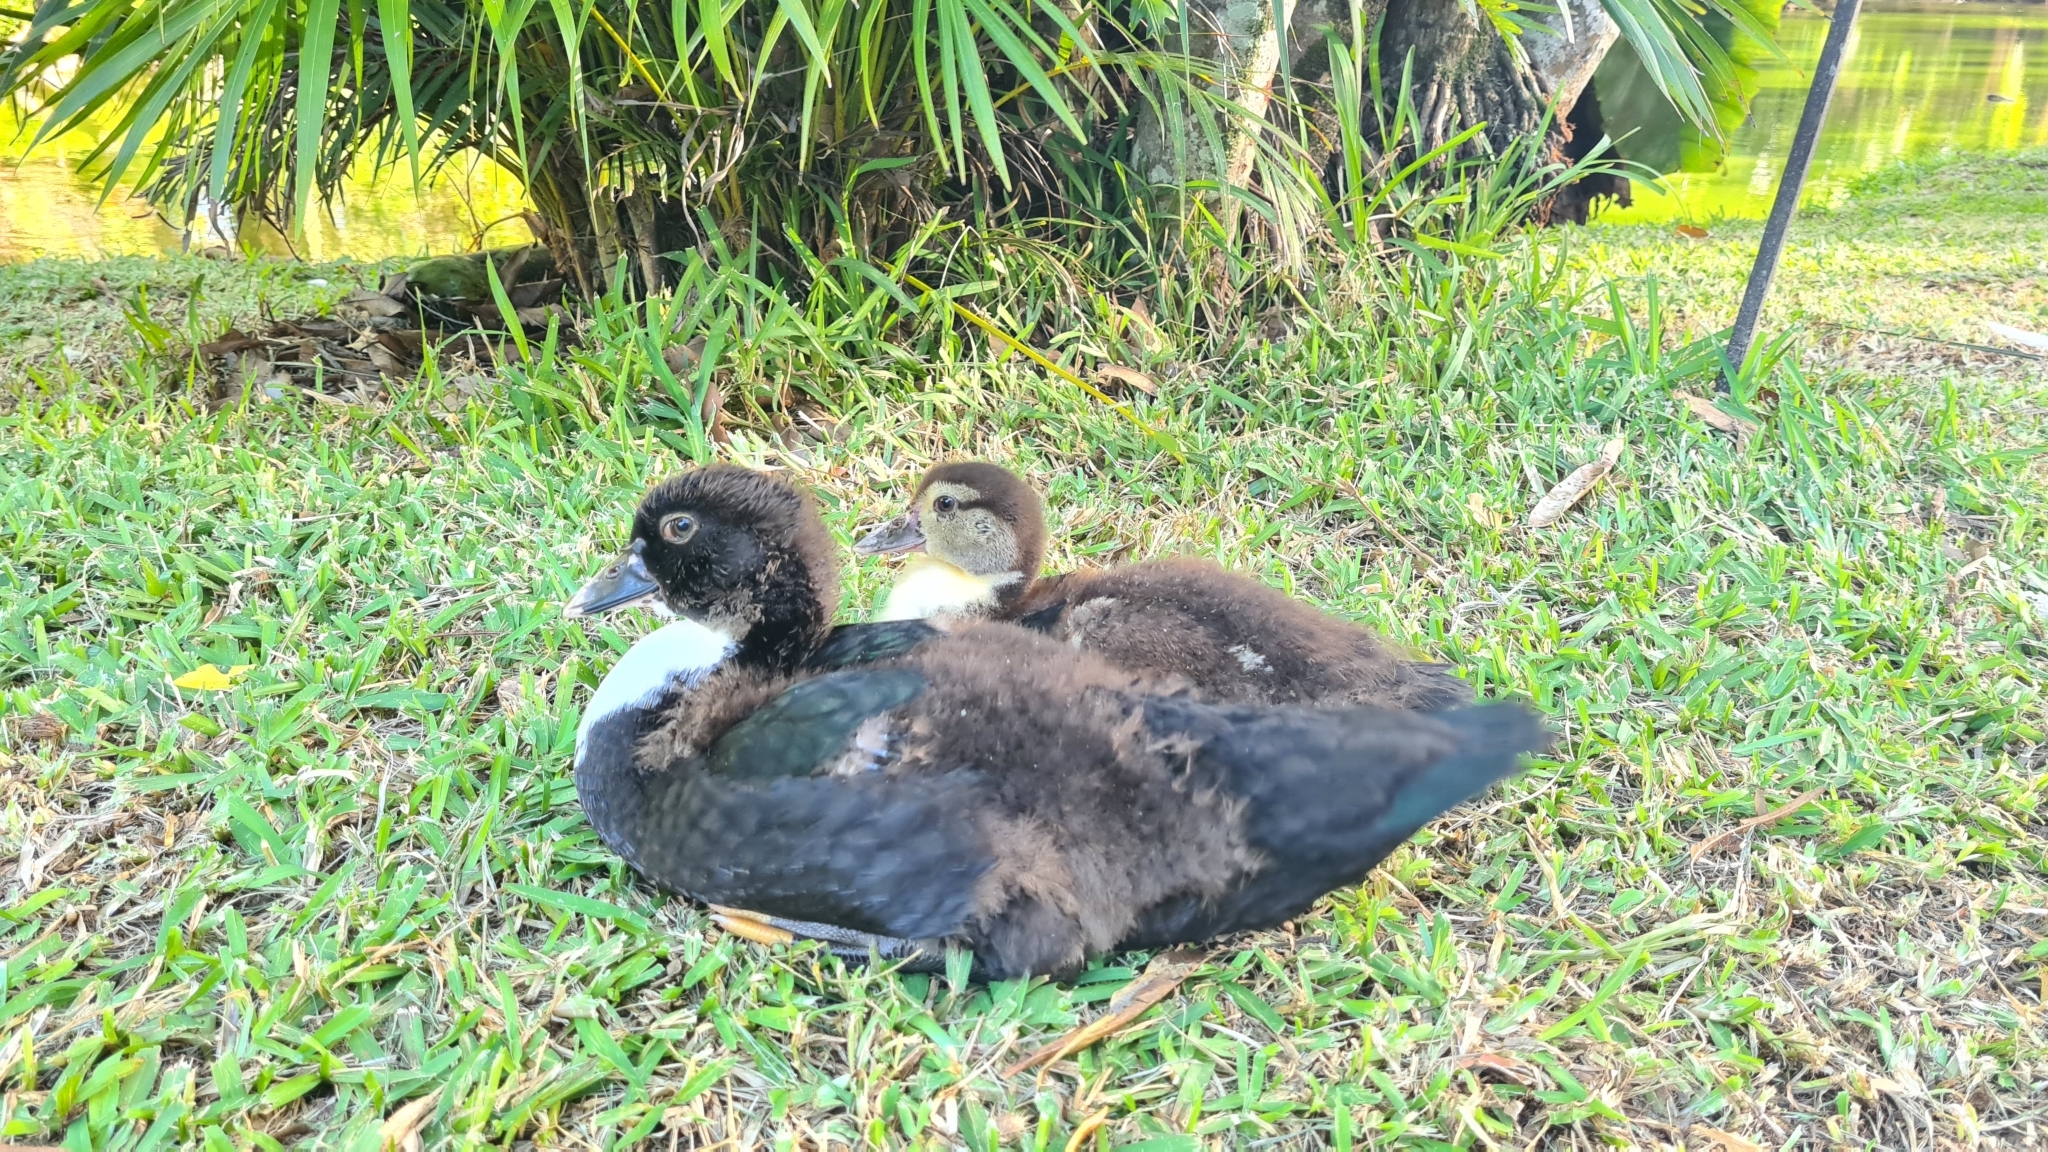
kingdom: Animalia
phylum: Chordata
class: Aves
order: Anseriformes
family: Anatidae
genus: Cairina
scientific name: Cairina moschata
